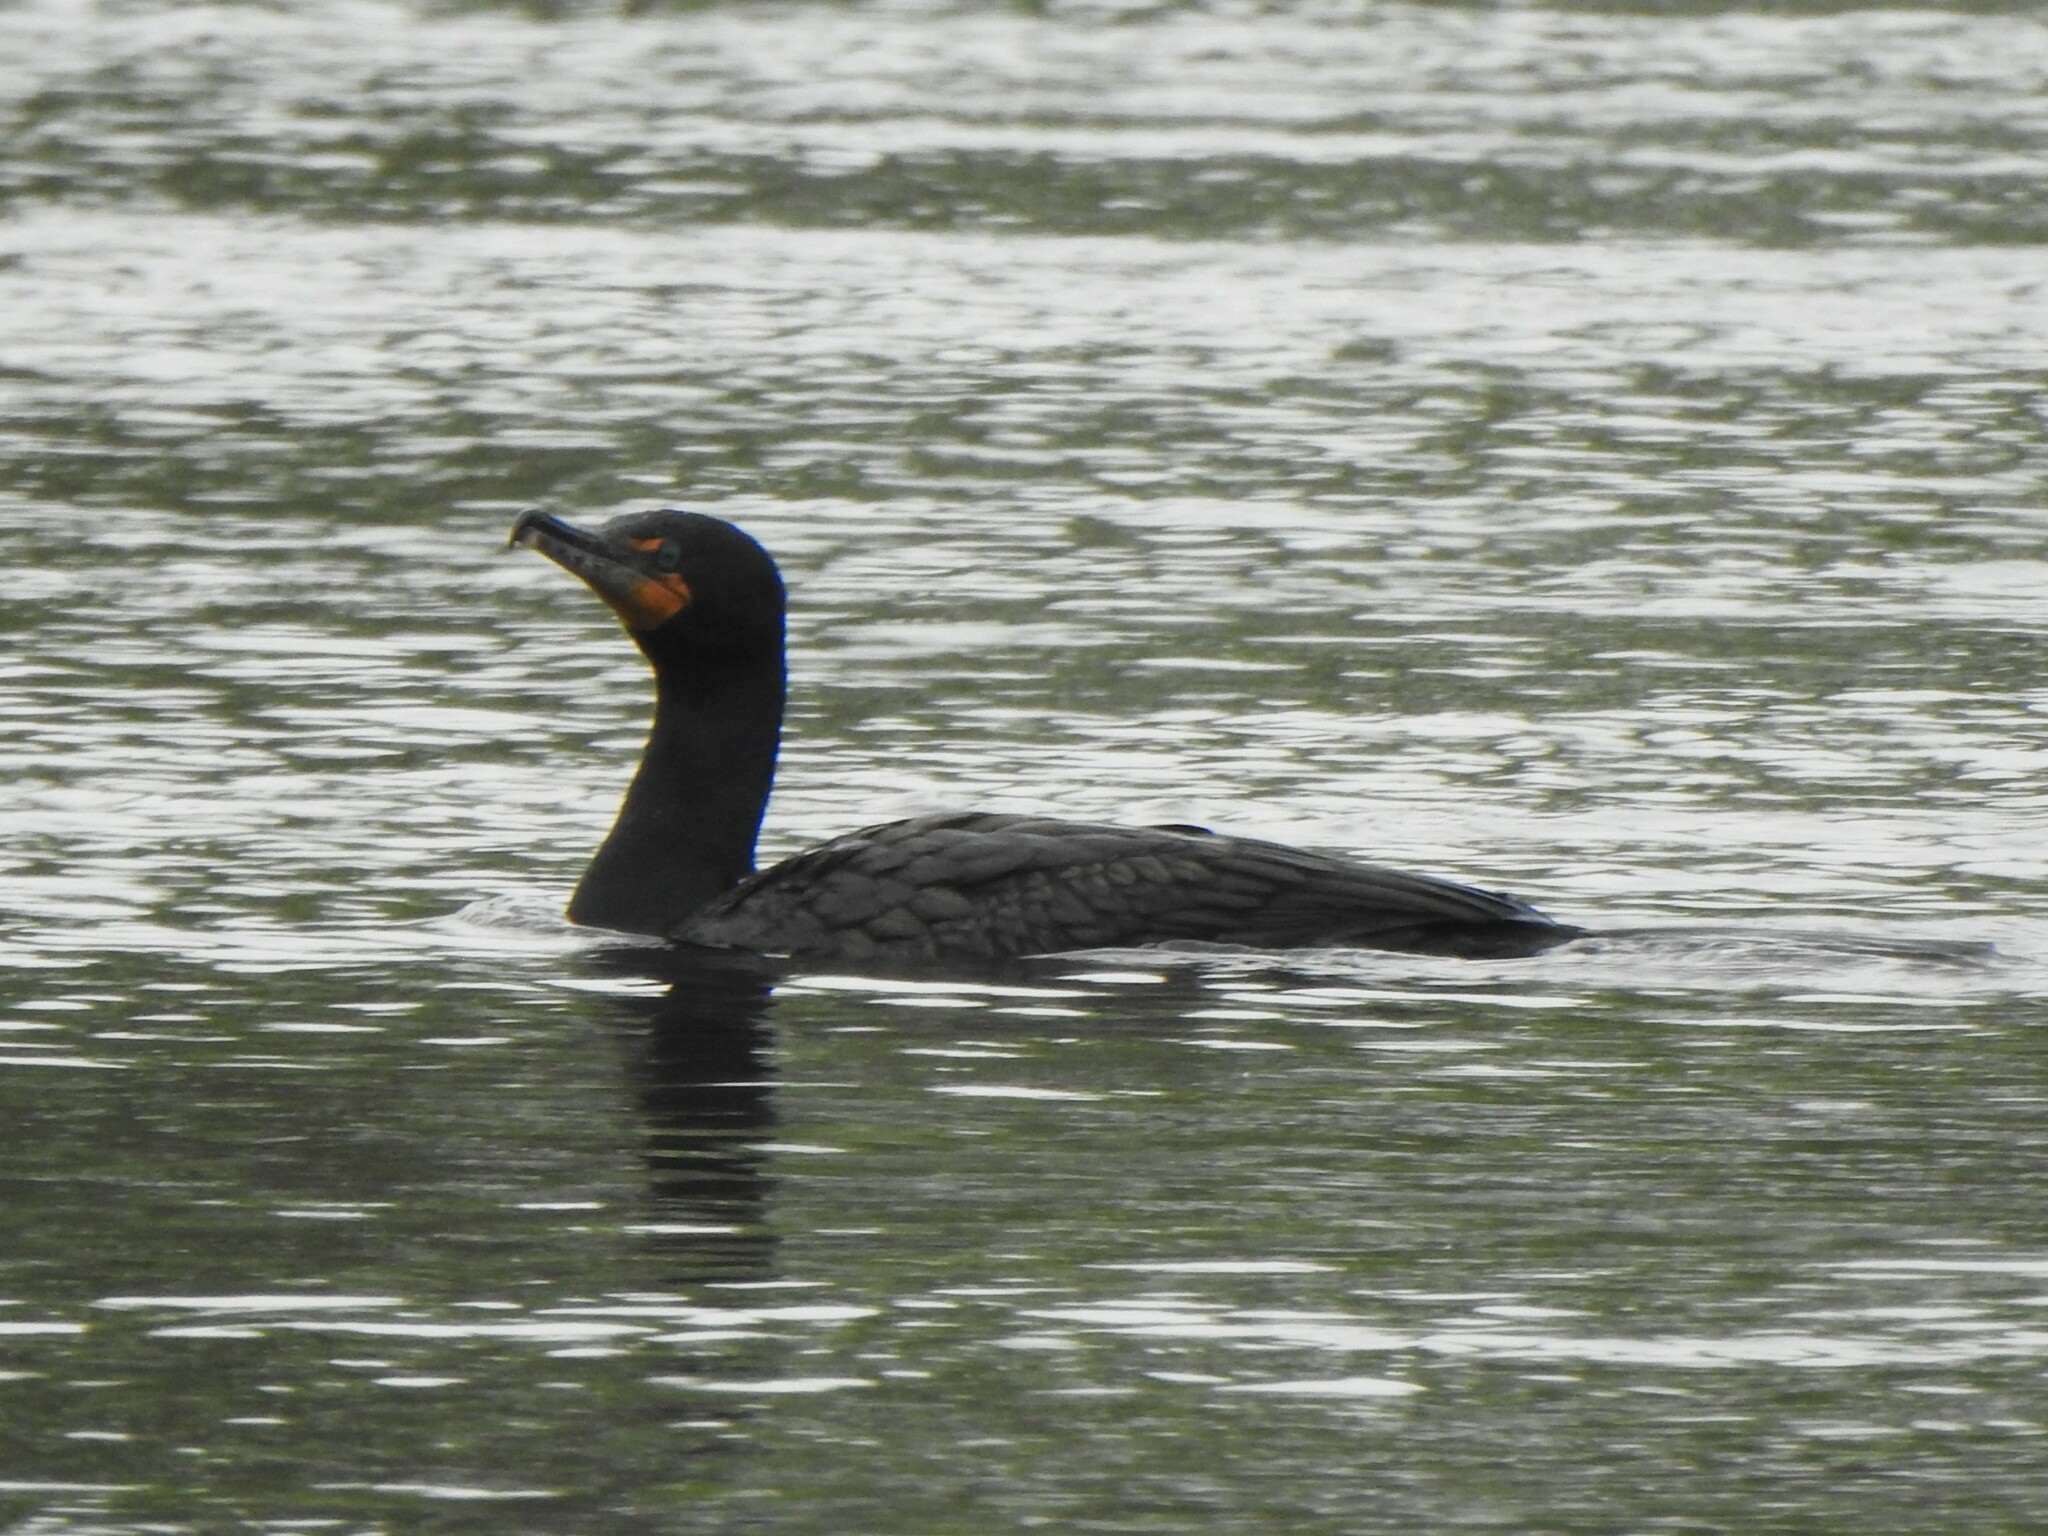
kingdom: Animalia
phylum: Chordata
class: Aves
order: Suliformes
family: Phalacrocoracidae
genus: Phalacrocorax
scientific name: Phalacrocorax auritus
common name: Double-crested cormorant
